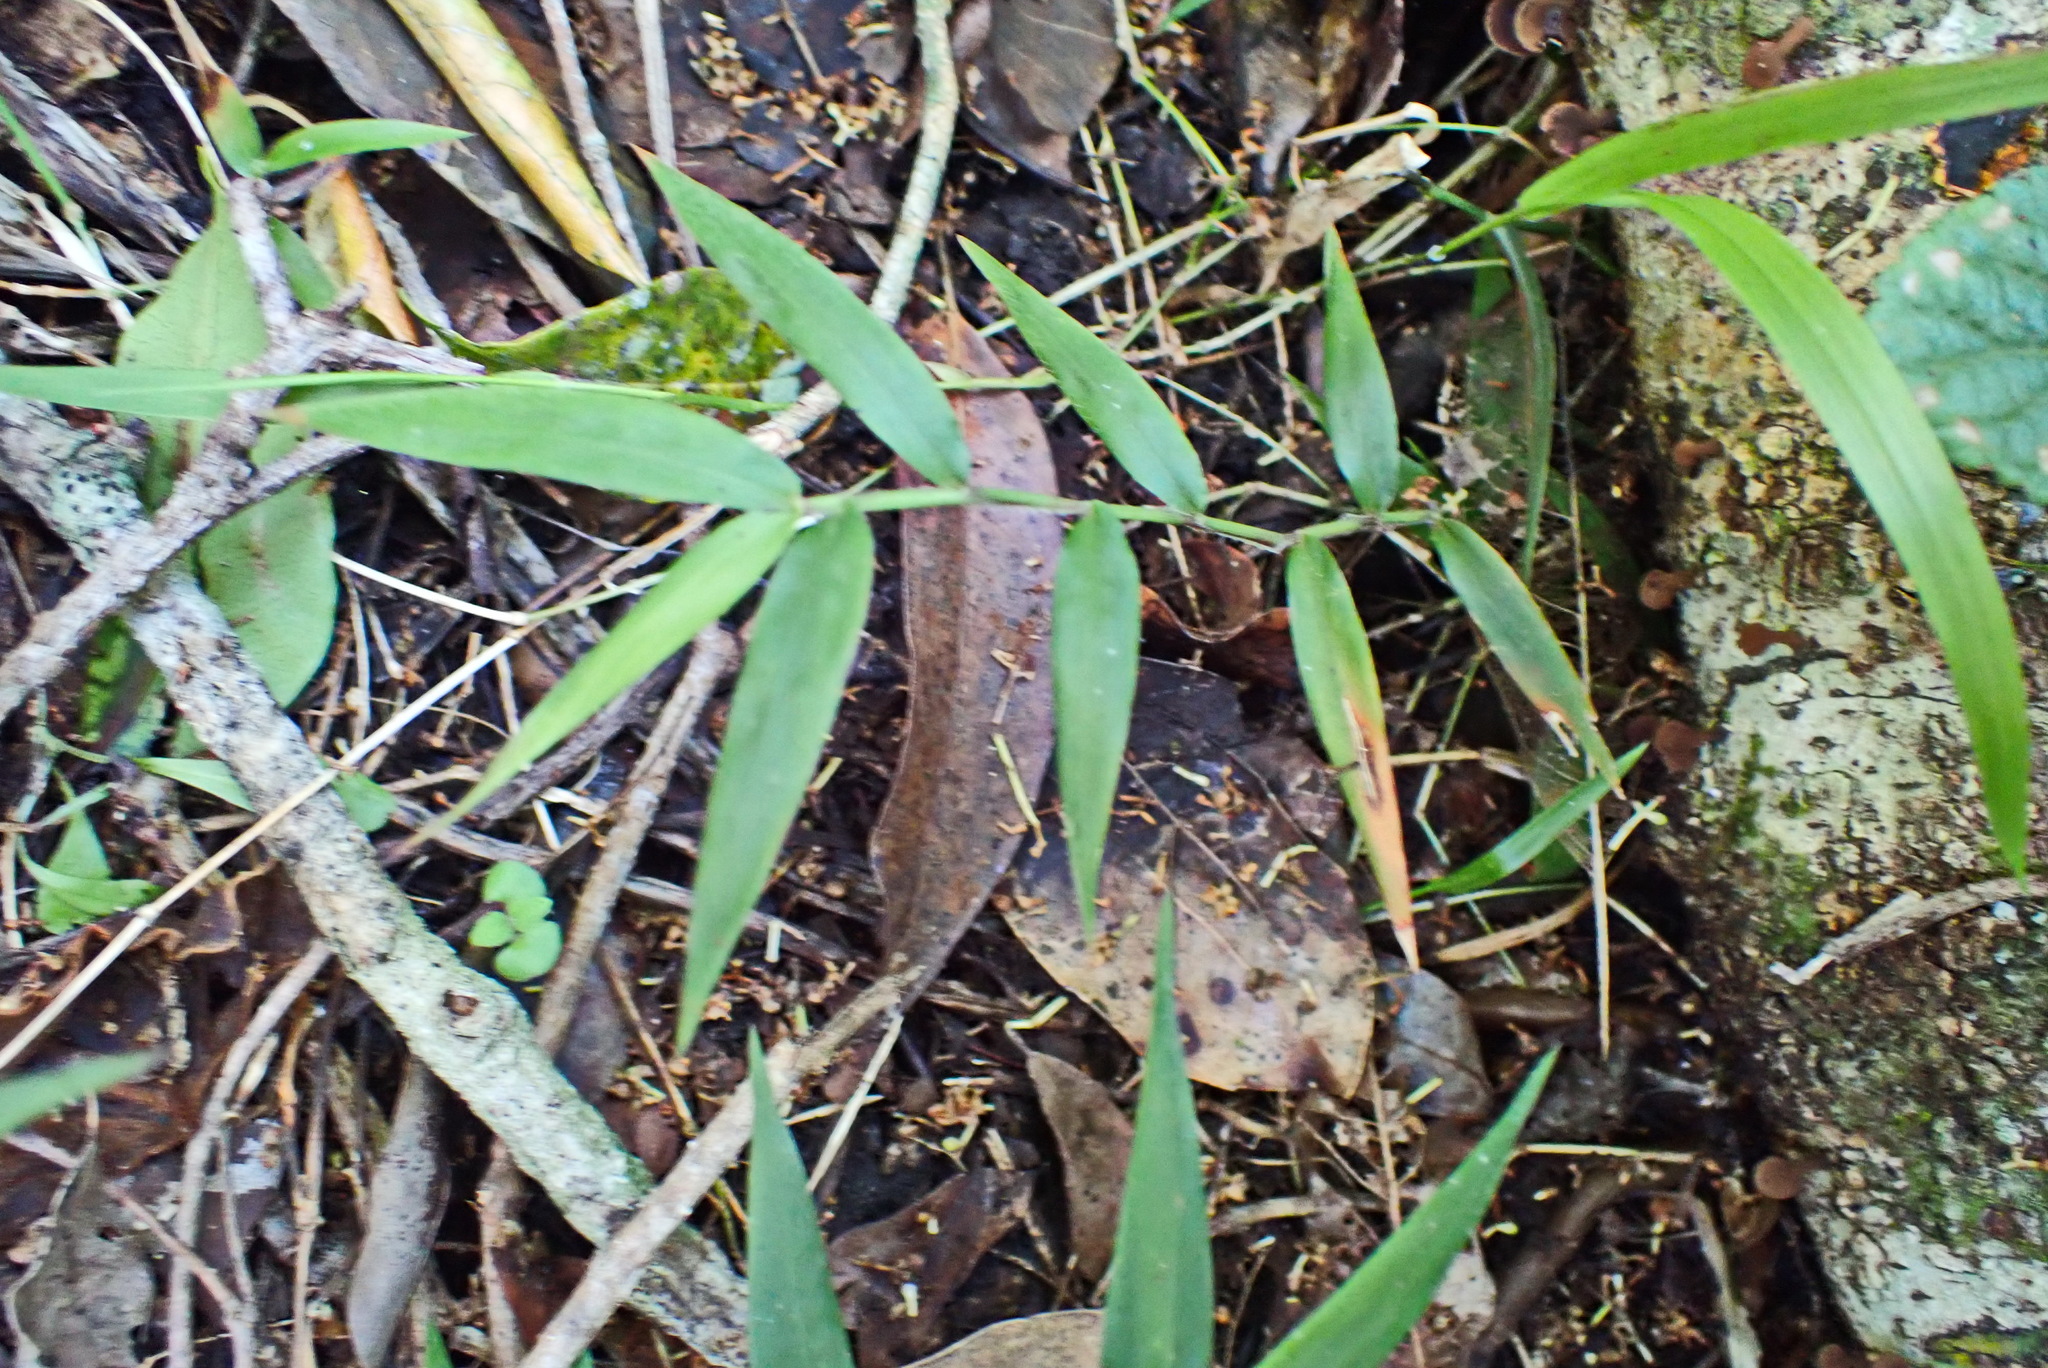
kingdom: Plantae
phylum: Tracheophyta
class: Liliopsida
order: Poales
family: Poaceae
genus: Oplismenus
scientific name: Oplismenus hirtellus
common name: Basketgrass
